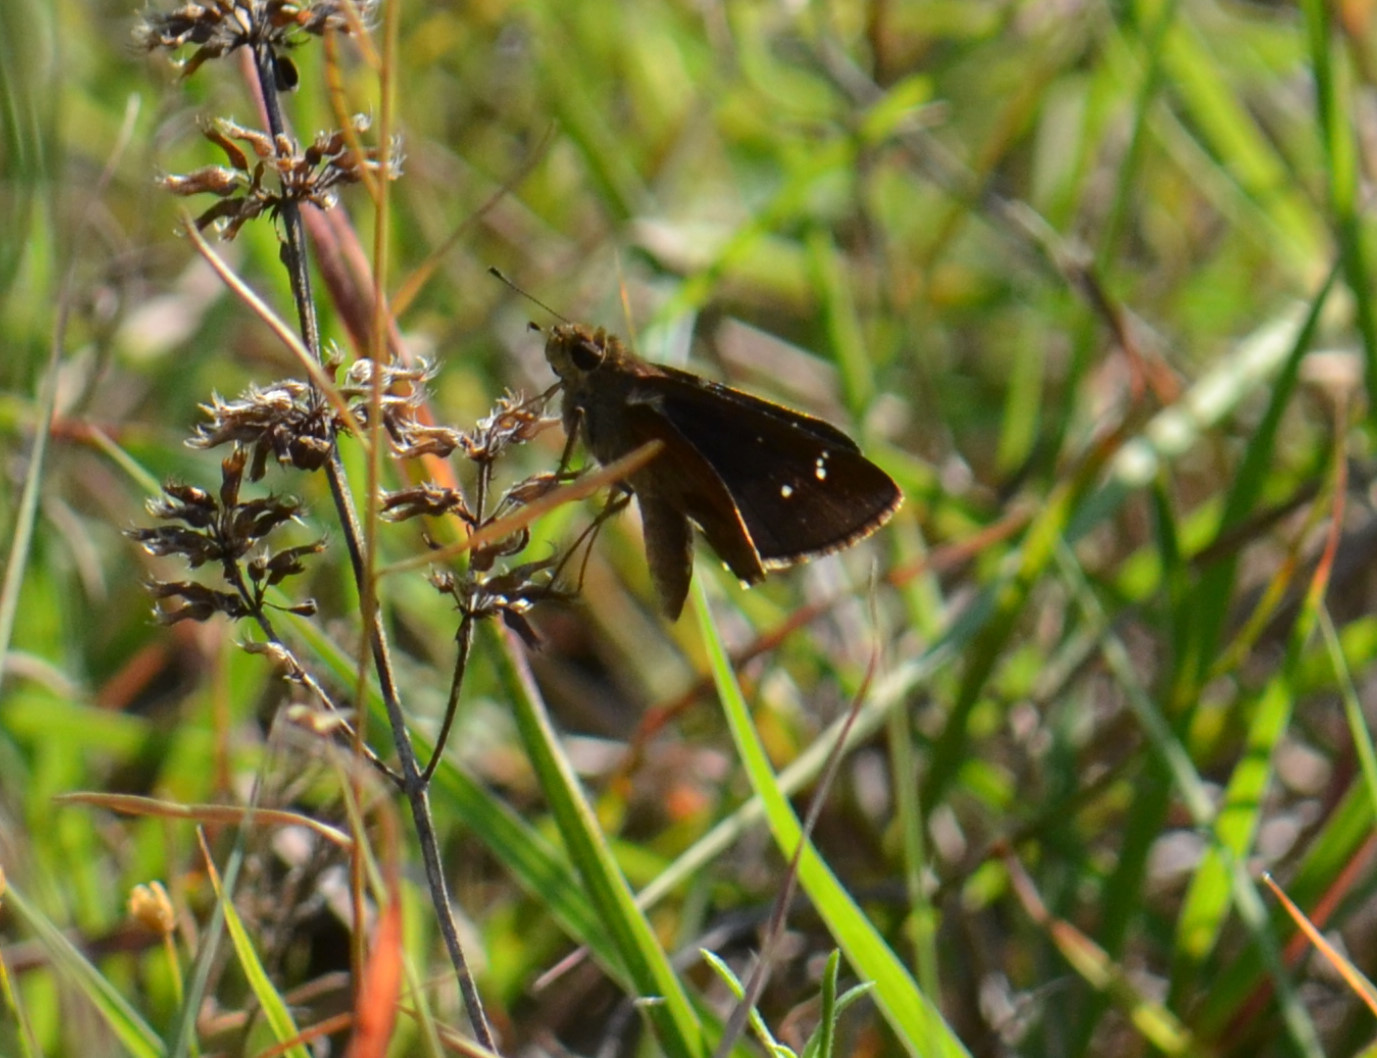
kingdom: Animalia
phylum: Arthropoda
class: Insecta
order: Lepidoptera
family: Hesperiidae
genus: Lerema
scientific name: Lerema accius
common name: Clouded skipper
